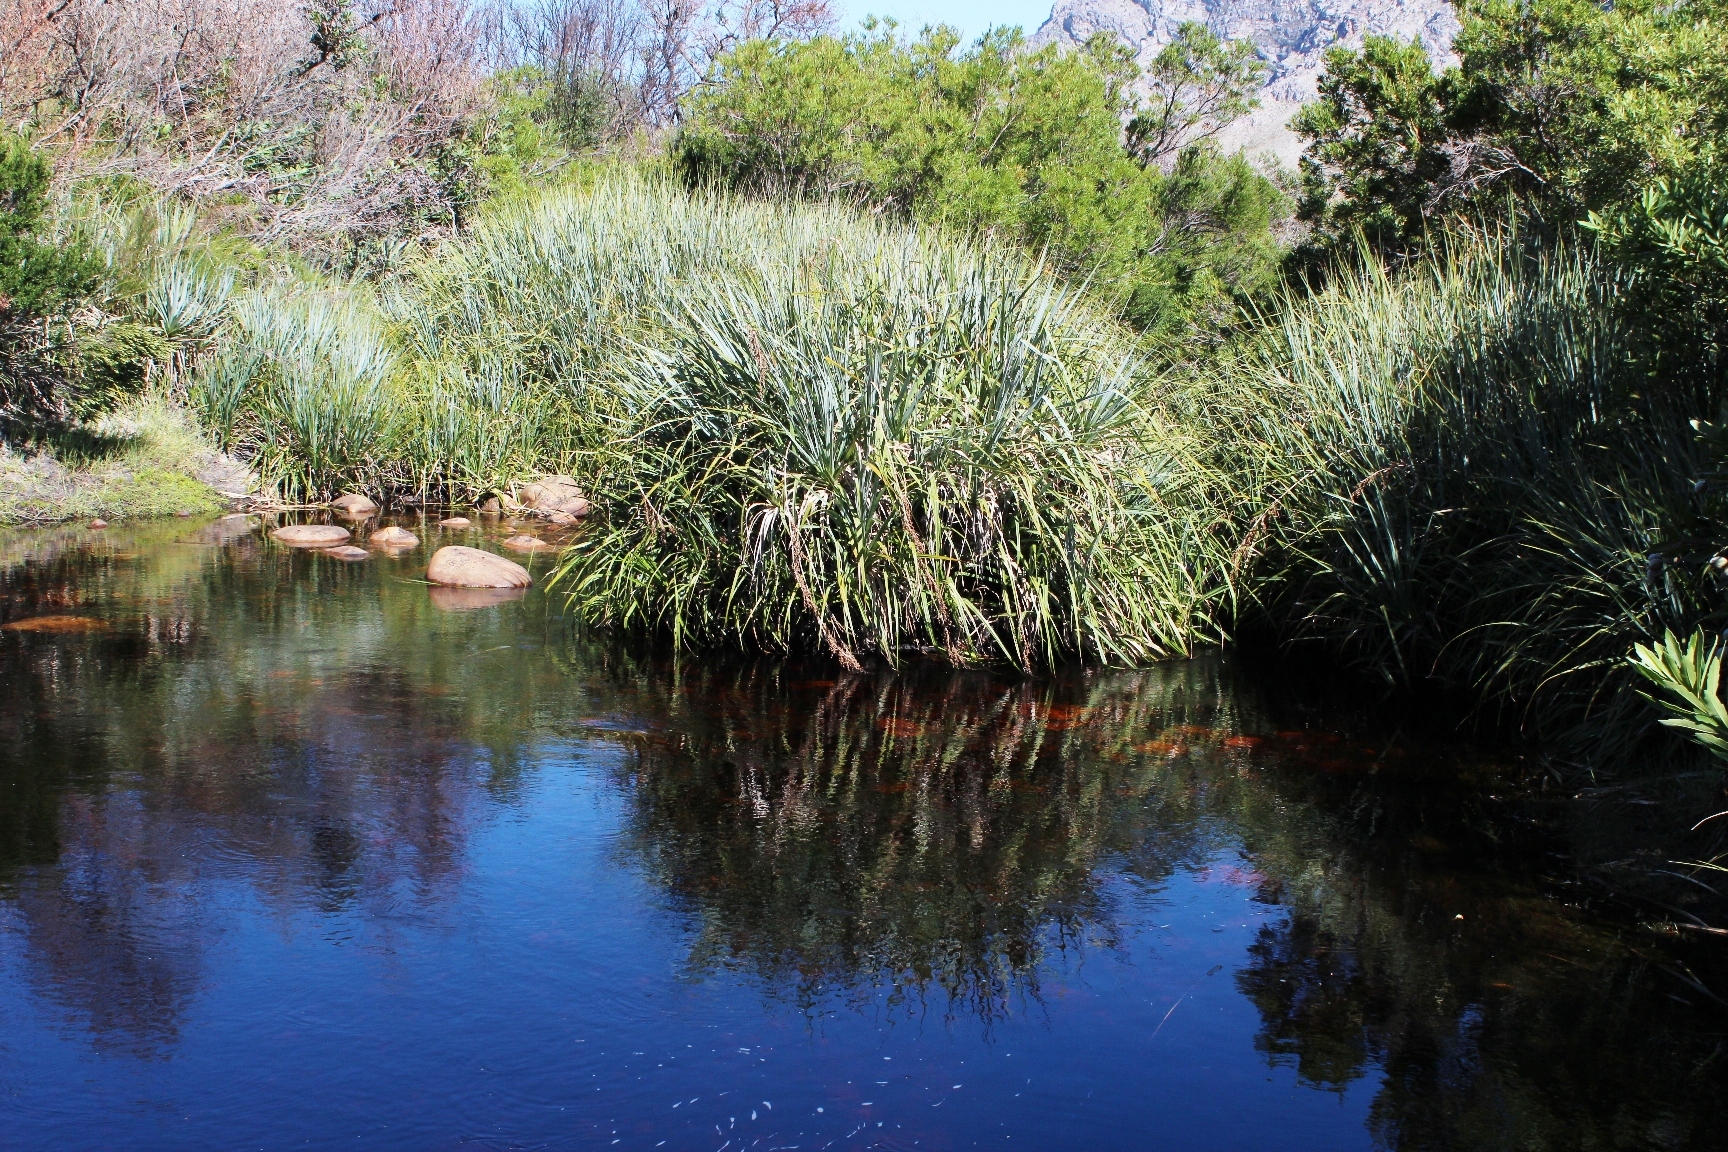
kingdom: Plantae
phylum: Tracheophyta
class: Liliopsida
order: Poales
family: Thurniaceae
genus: Prionium
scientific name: Prionium serratum
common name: Palmiet
